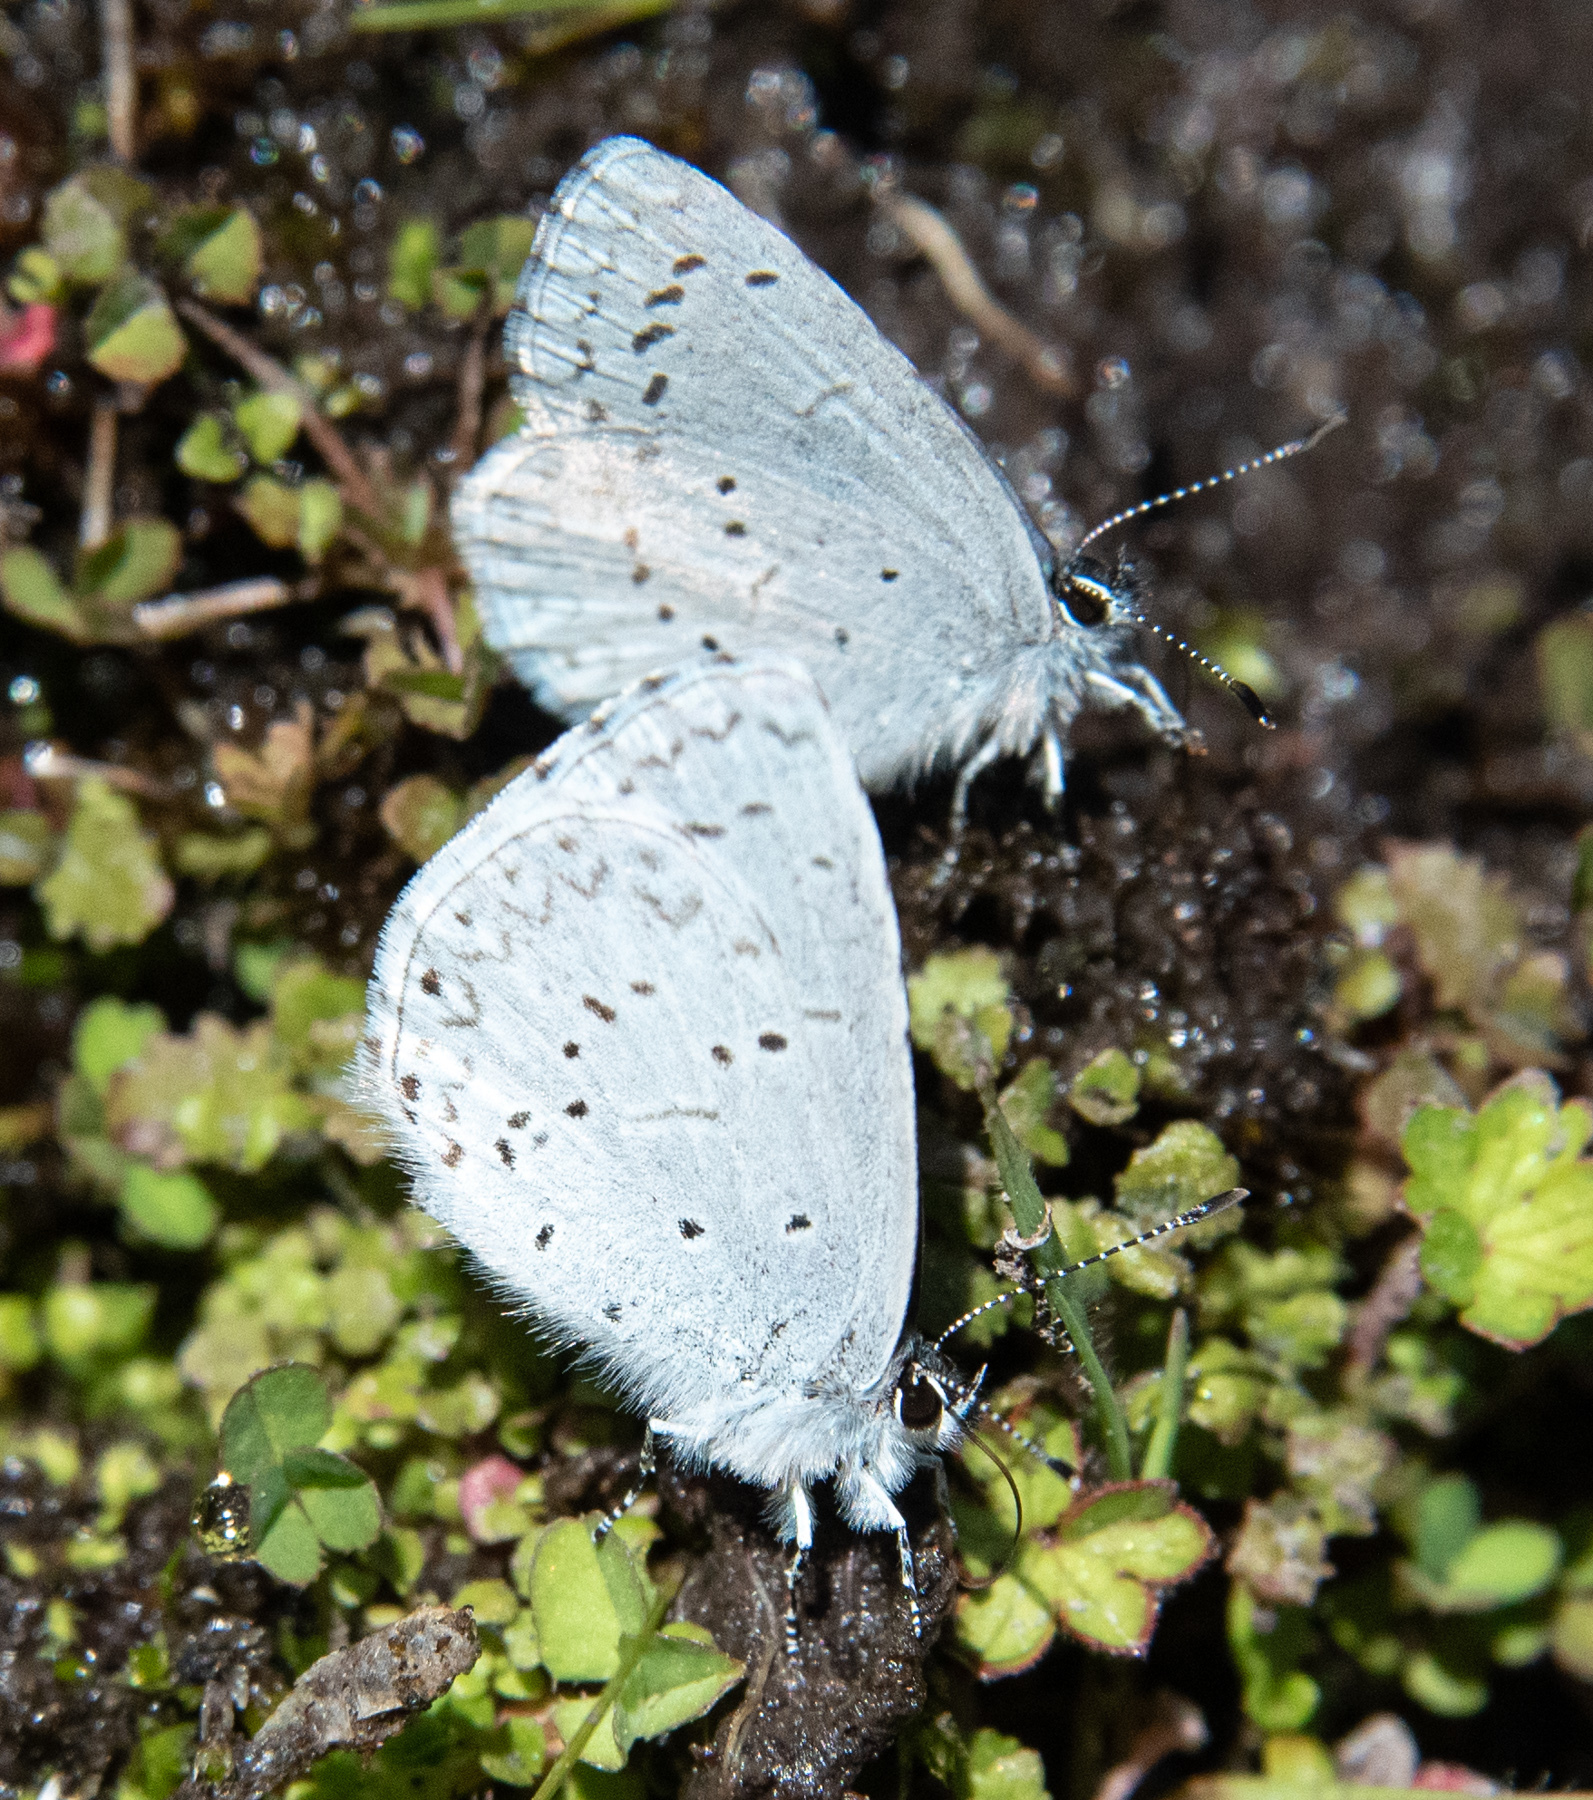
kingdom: Animalia
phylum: Arthropoda
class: Insecta
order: Lepidoptera
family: Lycaenidae
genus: Celastrina
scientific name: Celastrina ladon
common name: Spring azure
